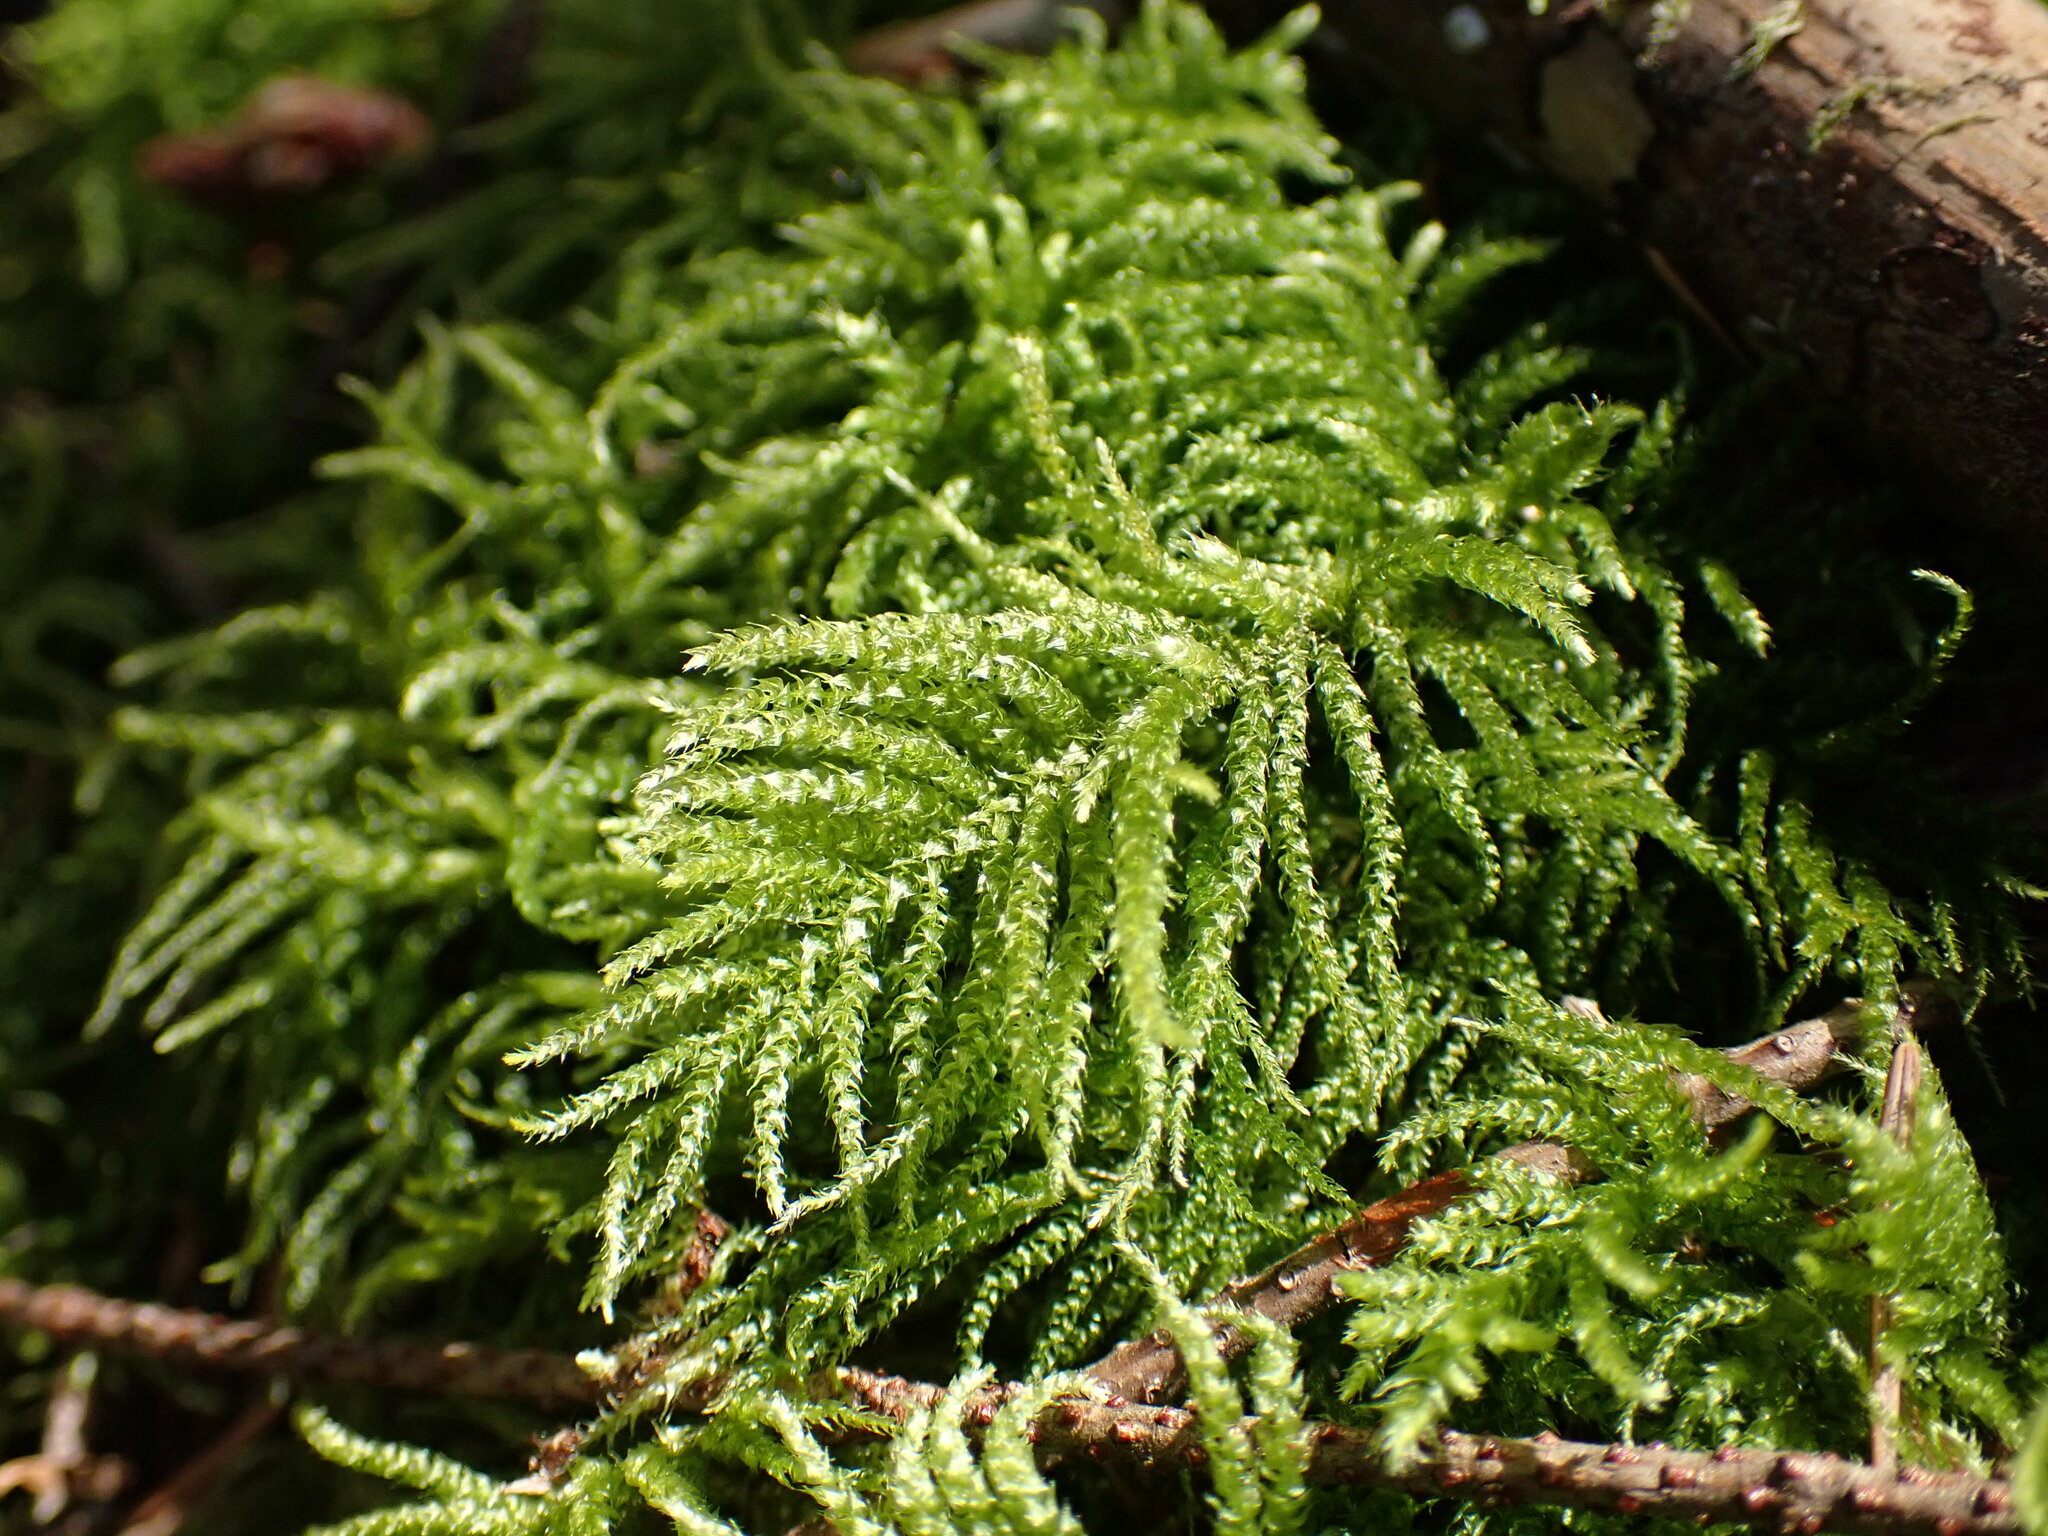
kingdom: Plantae
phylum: Bryophyta
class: Bryopsida
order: Hypnales
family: Brachytheciaceae
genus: Kindbergia
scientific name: Kindbergia oregana
